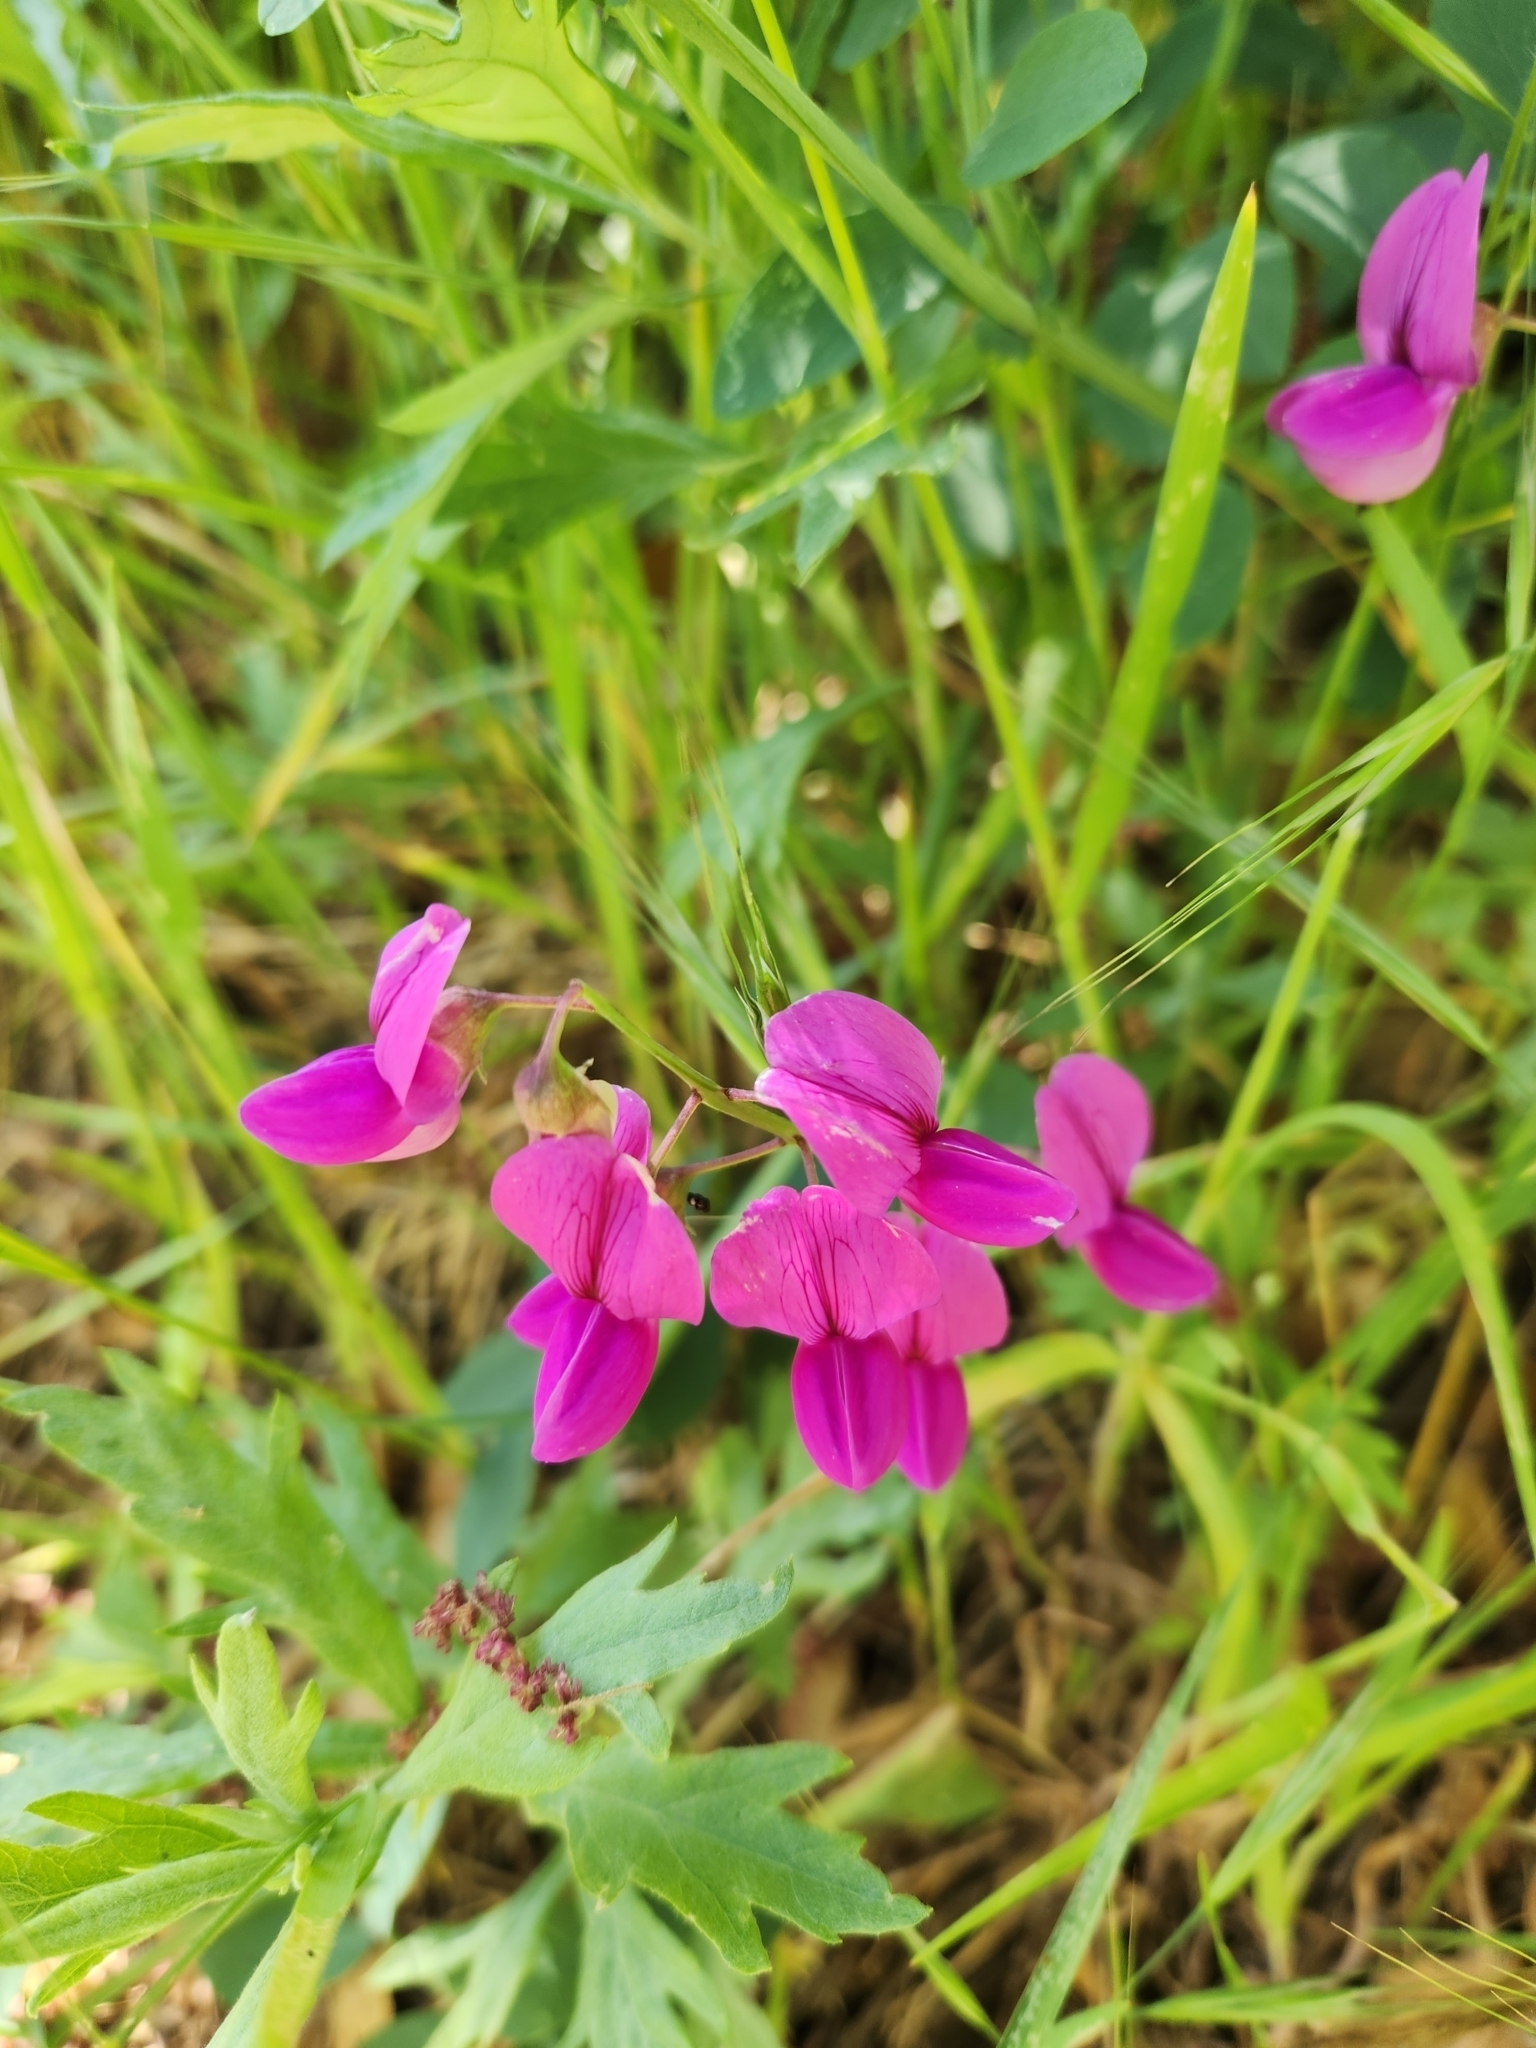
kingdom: Plantae
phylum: Tracheophyta
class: Magnoliopsida
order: Fabales
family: Fabaceae
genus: Lathyrus
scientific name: Lathyrus vestitus
